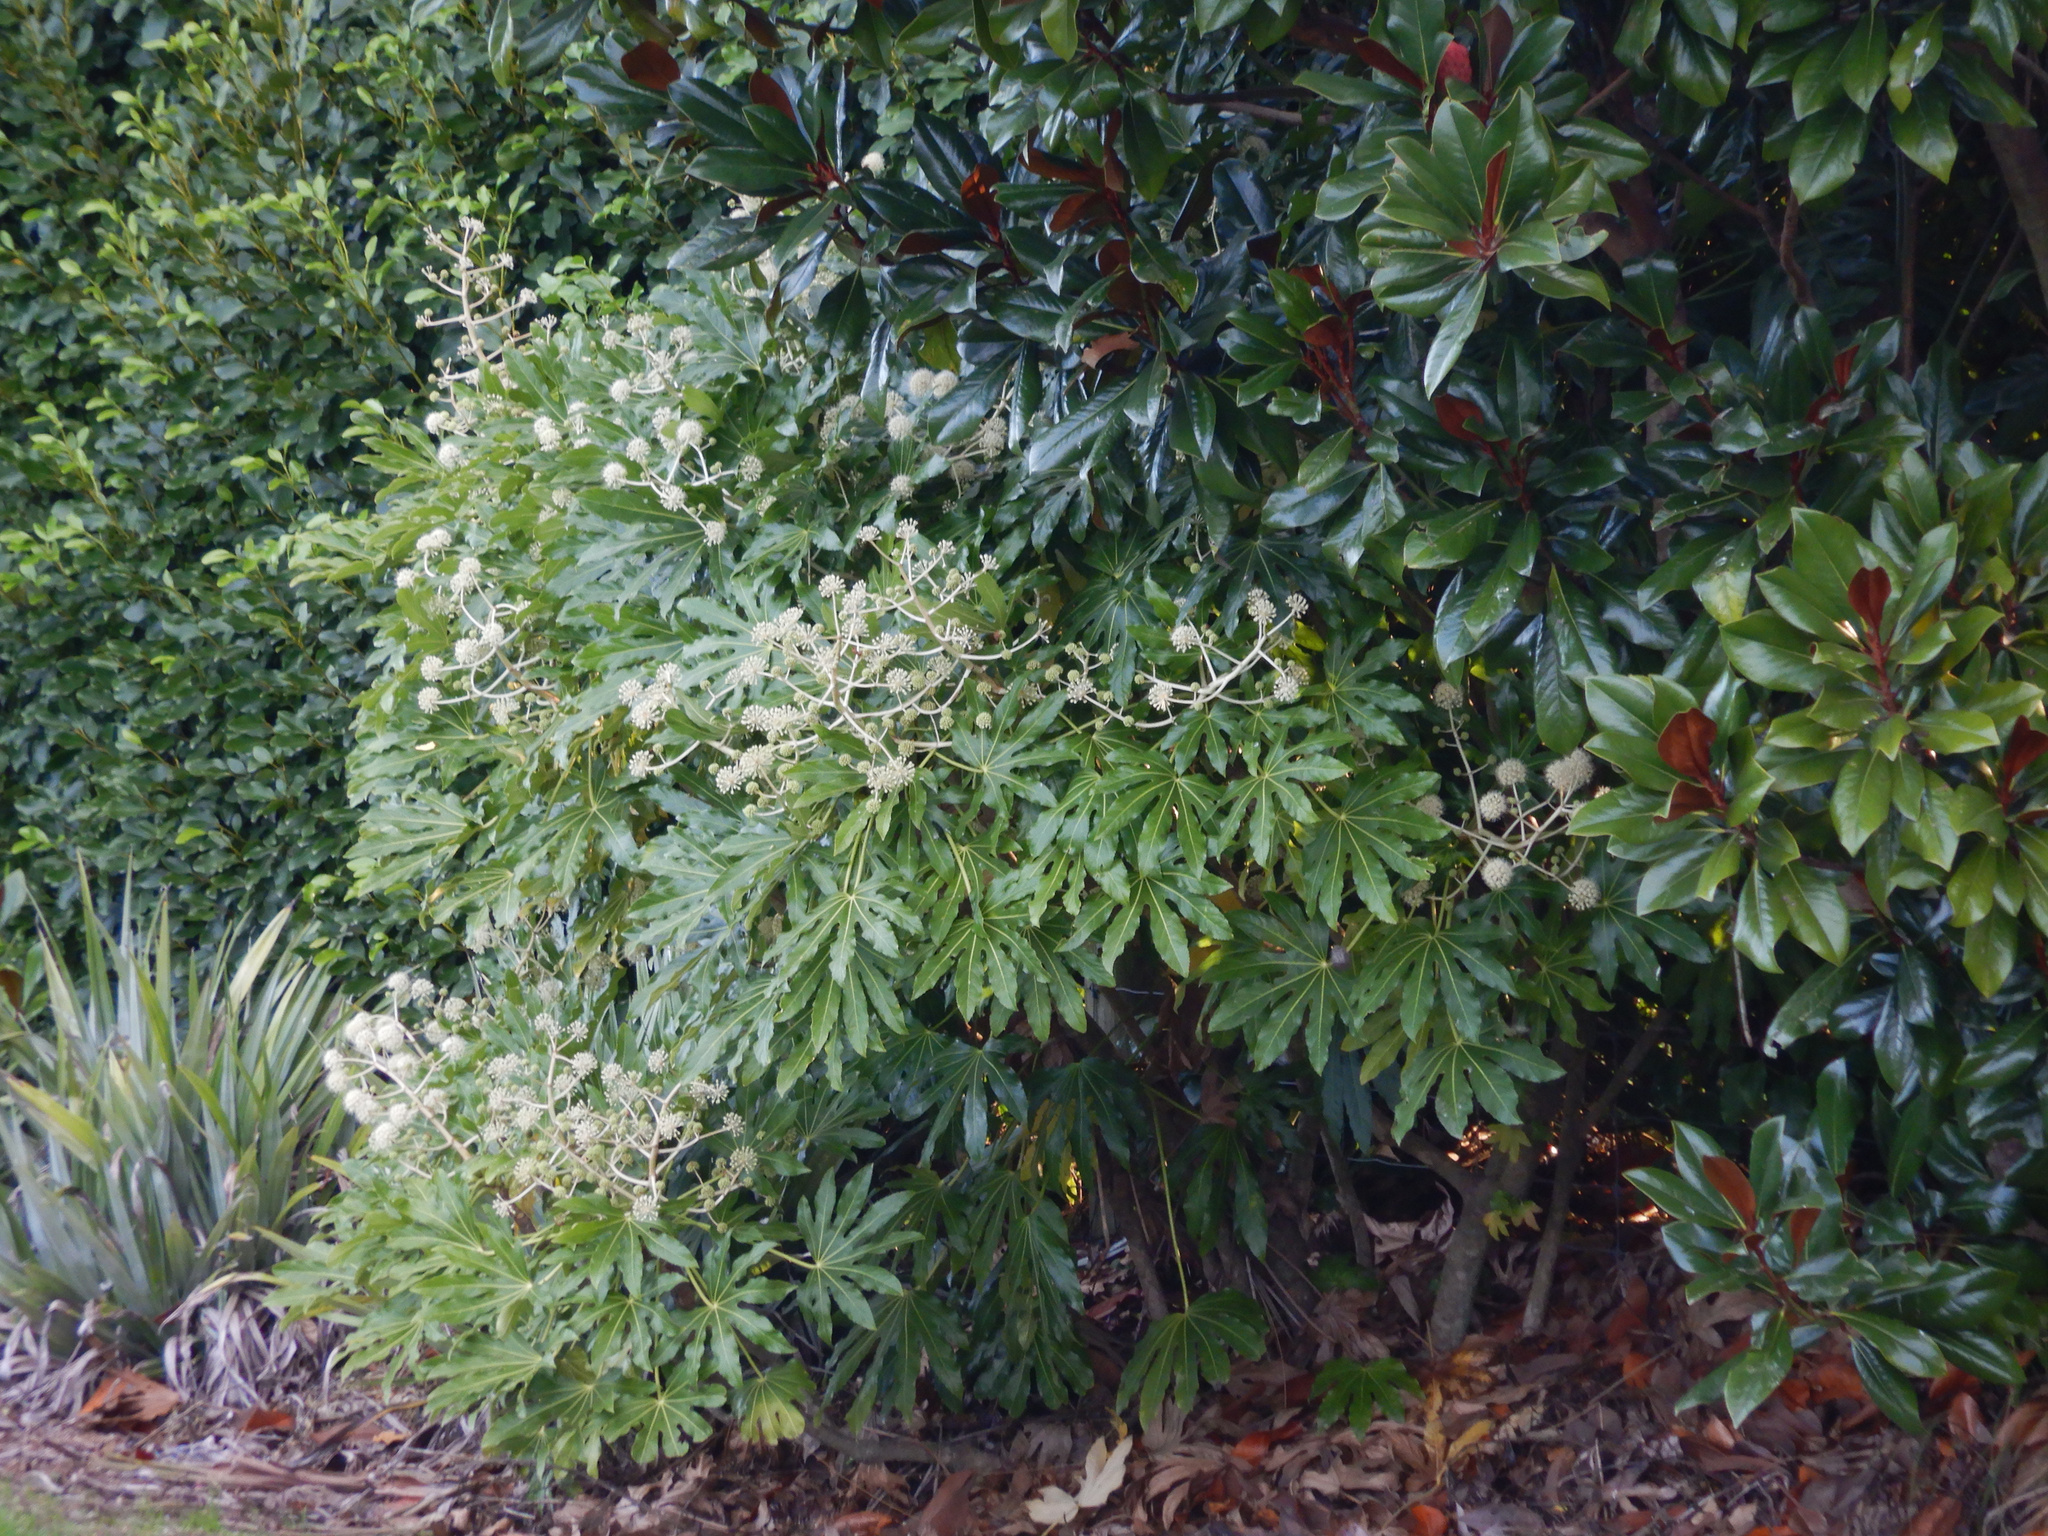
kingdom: Plantae
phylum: Tracheophyta
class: Magnoliopsida
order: Apiales
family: Araliaceae
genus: Fatsia
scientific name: Fatsia japonica
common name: Fatsia
